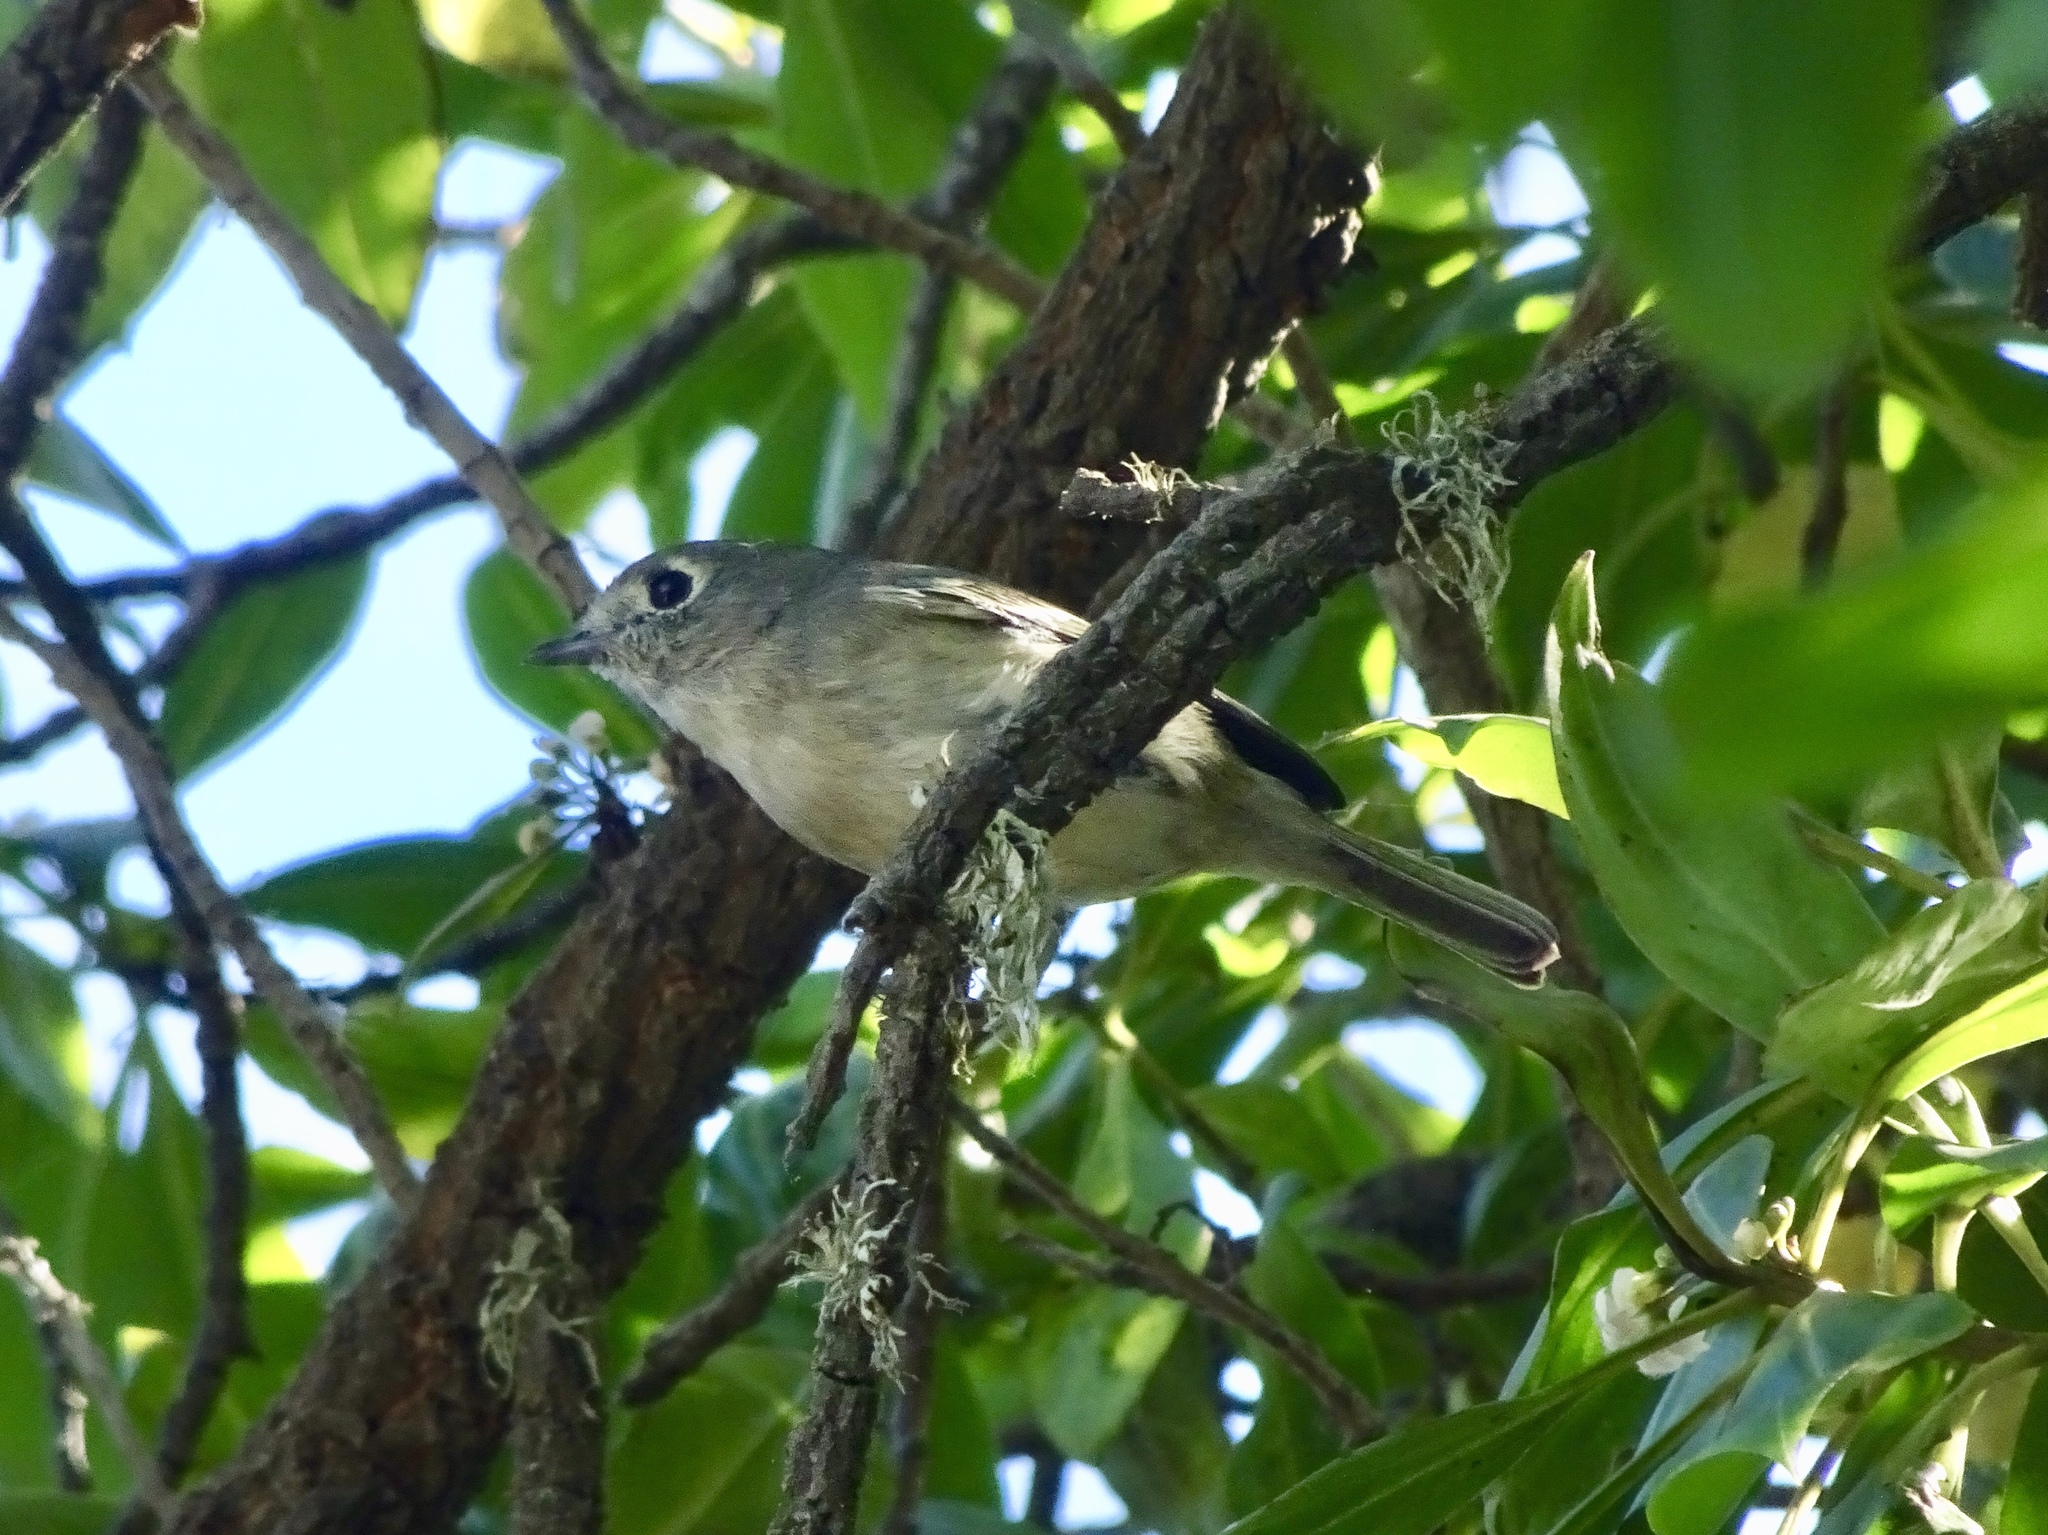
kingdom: Animalia
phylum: Chordata
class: Aves
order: Passeriformes
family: Vireonidae
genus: Vireo
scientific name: Vireo huttoni
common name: Hutton's vireo
